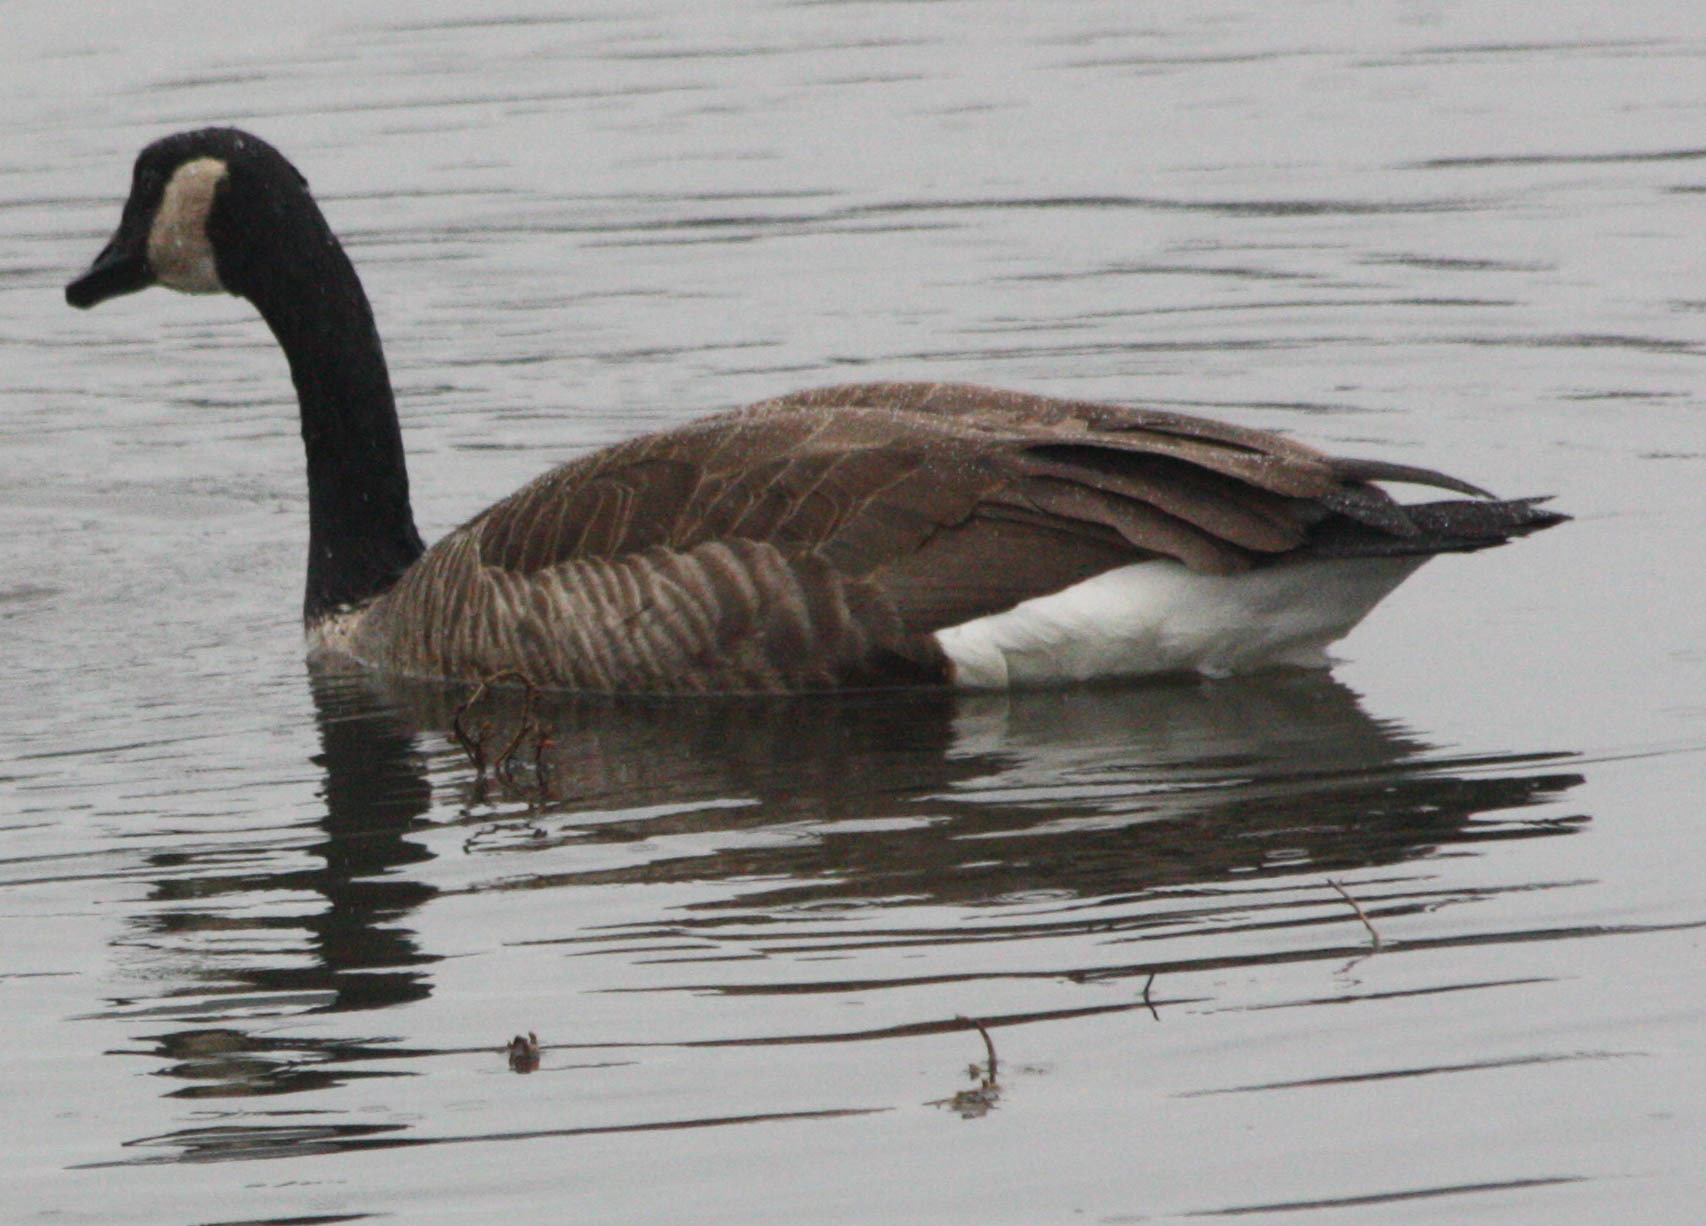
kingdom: Animalia
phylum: Chordata
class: Aves
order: Anseriformes
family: Anatidae
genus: Branta
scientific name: Branta canadensis
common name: Canada goose
